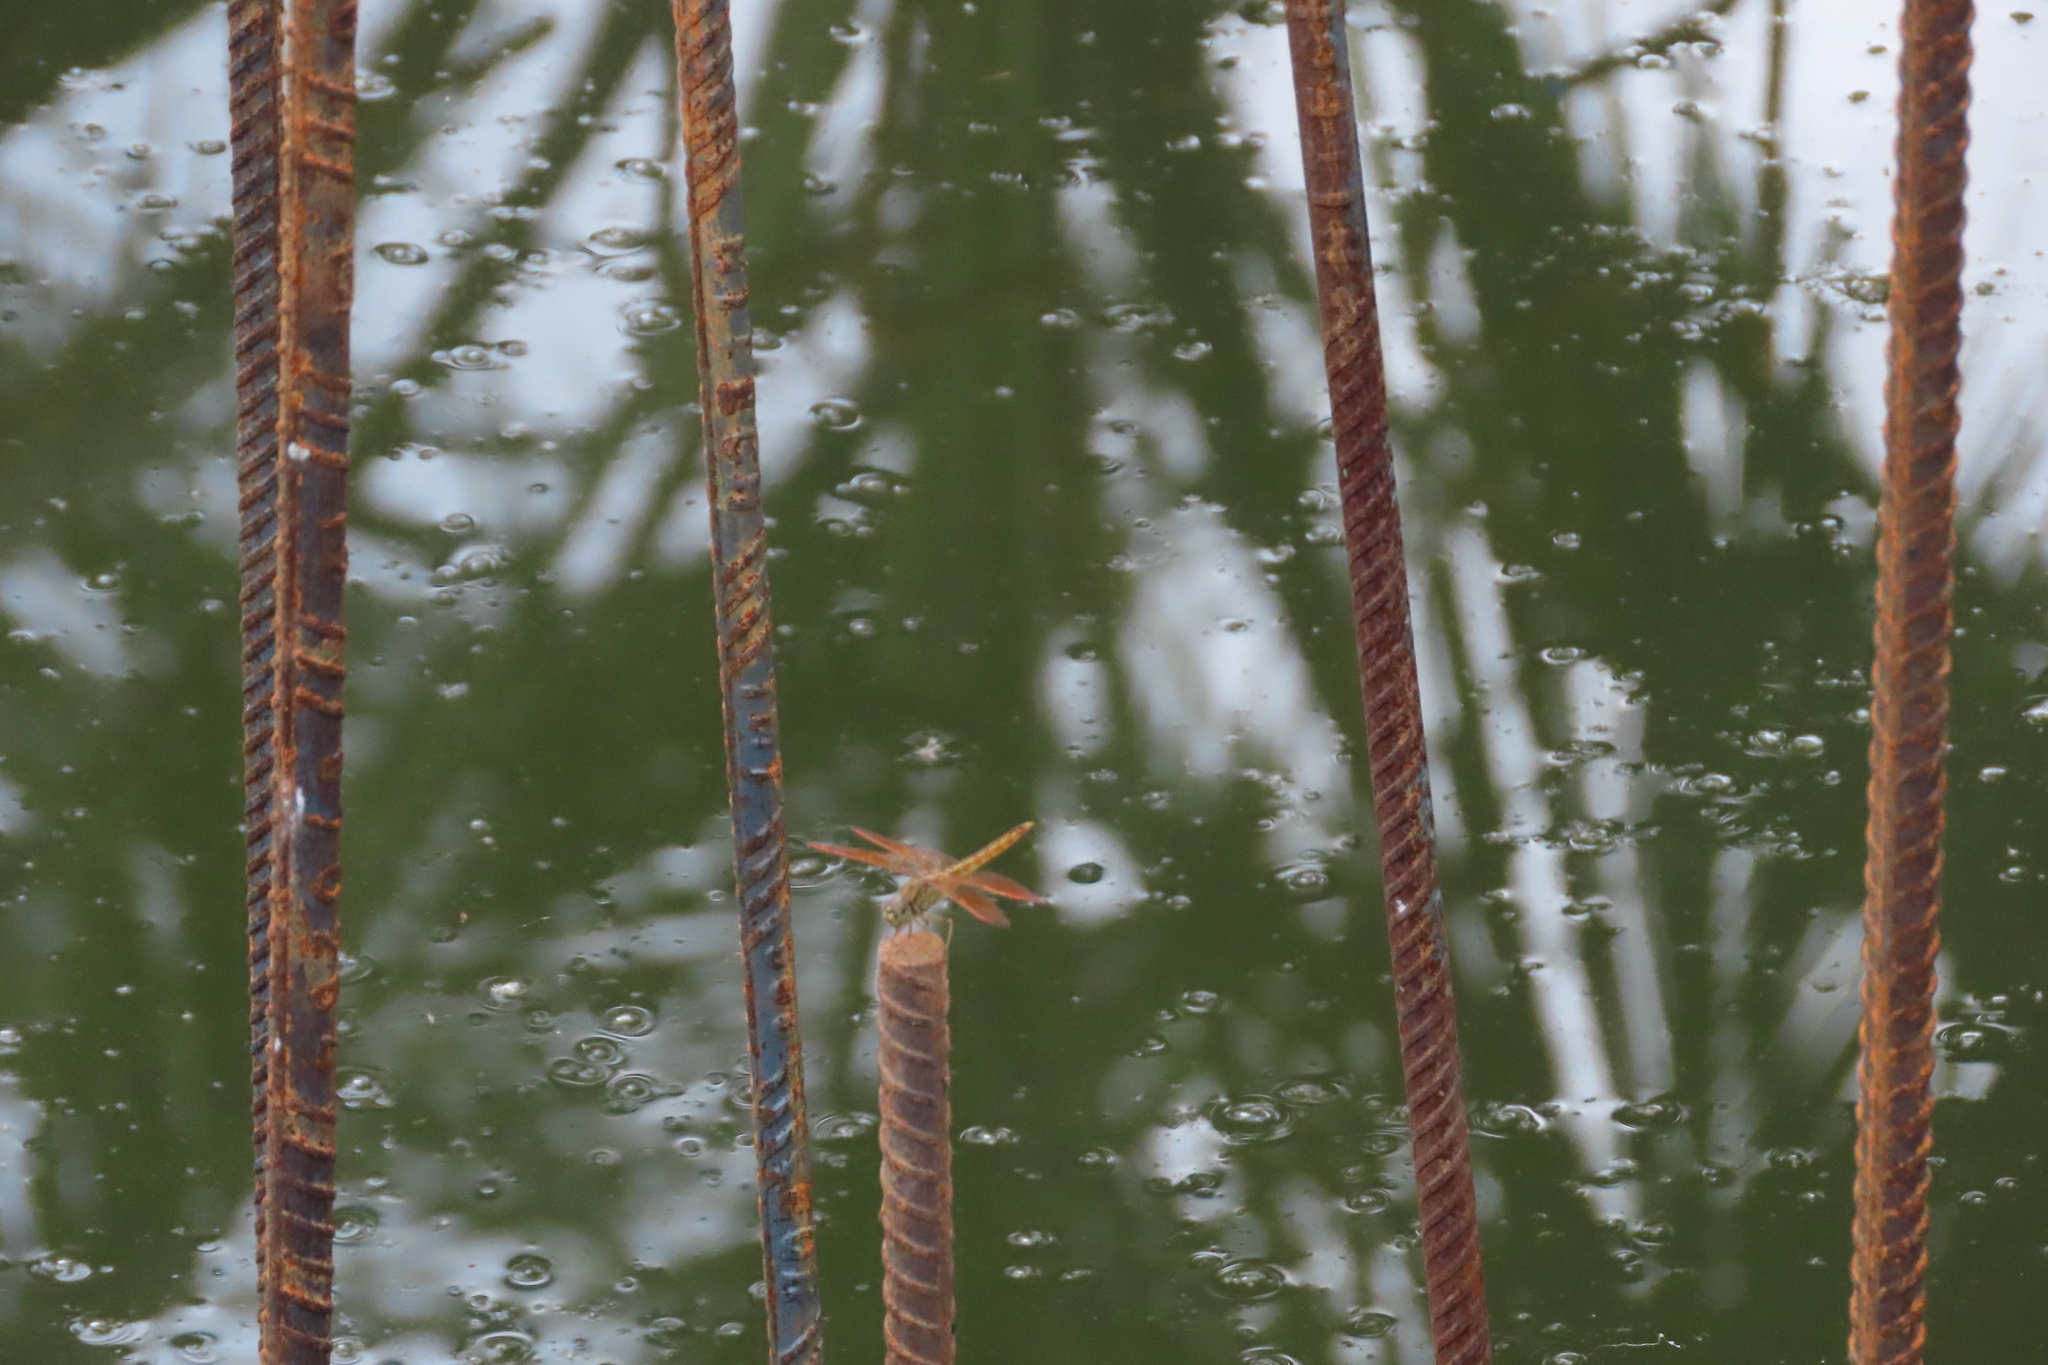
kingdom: Animalia
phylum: Arthropoda
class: Insecta
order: Odonata
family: Libellulidae
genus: Brachythemis
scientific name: Brachythemis contaminata
